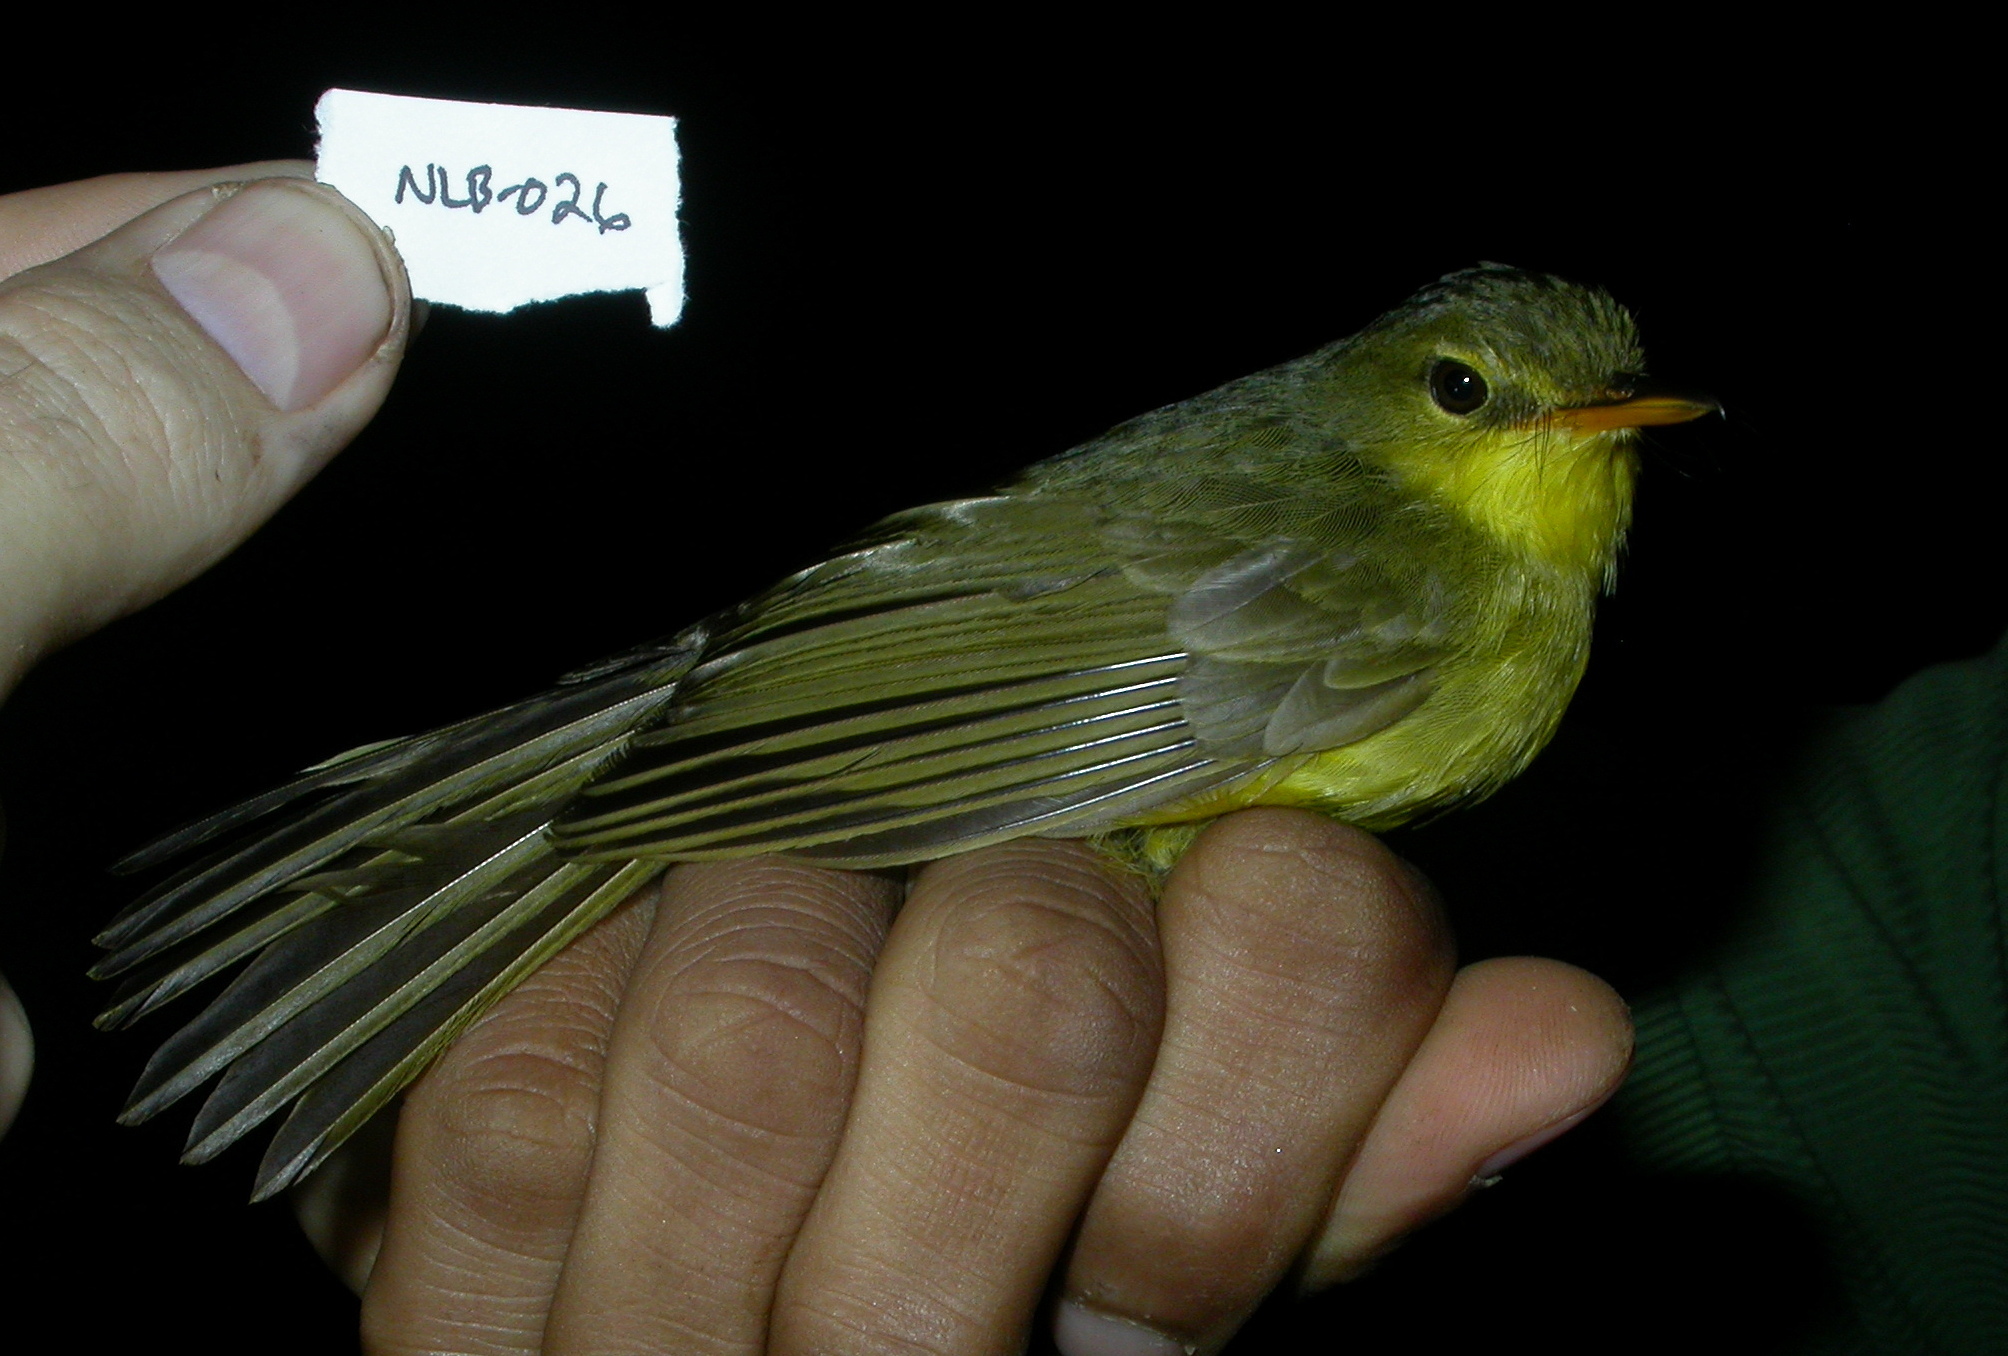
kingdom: Animalia
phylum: Chordata
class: Aves
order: Passeriformes
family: Bernieridae
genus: Xanthomixis
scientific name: Xanthomixis zosterops
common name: Spectacled tetraka
